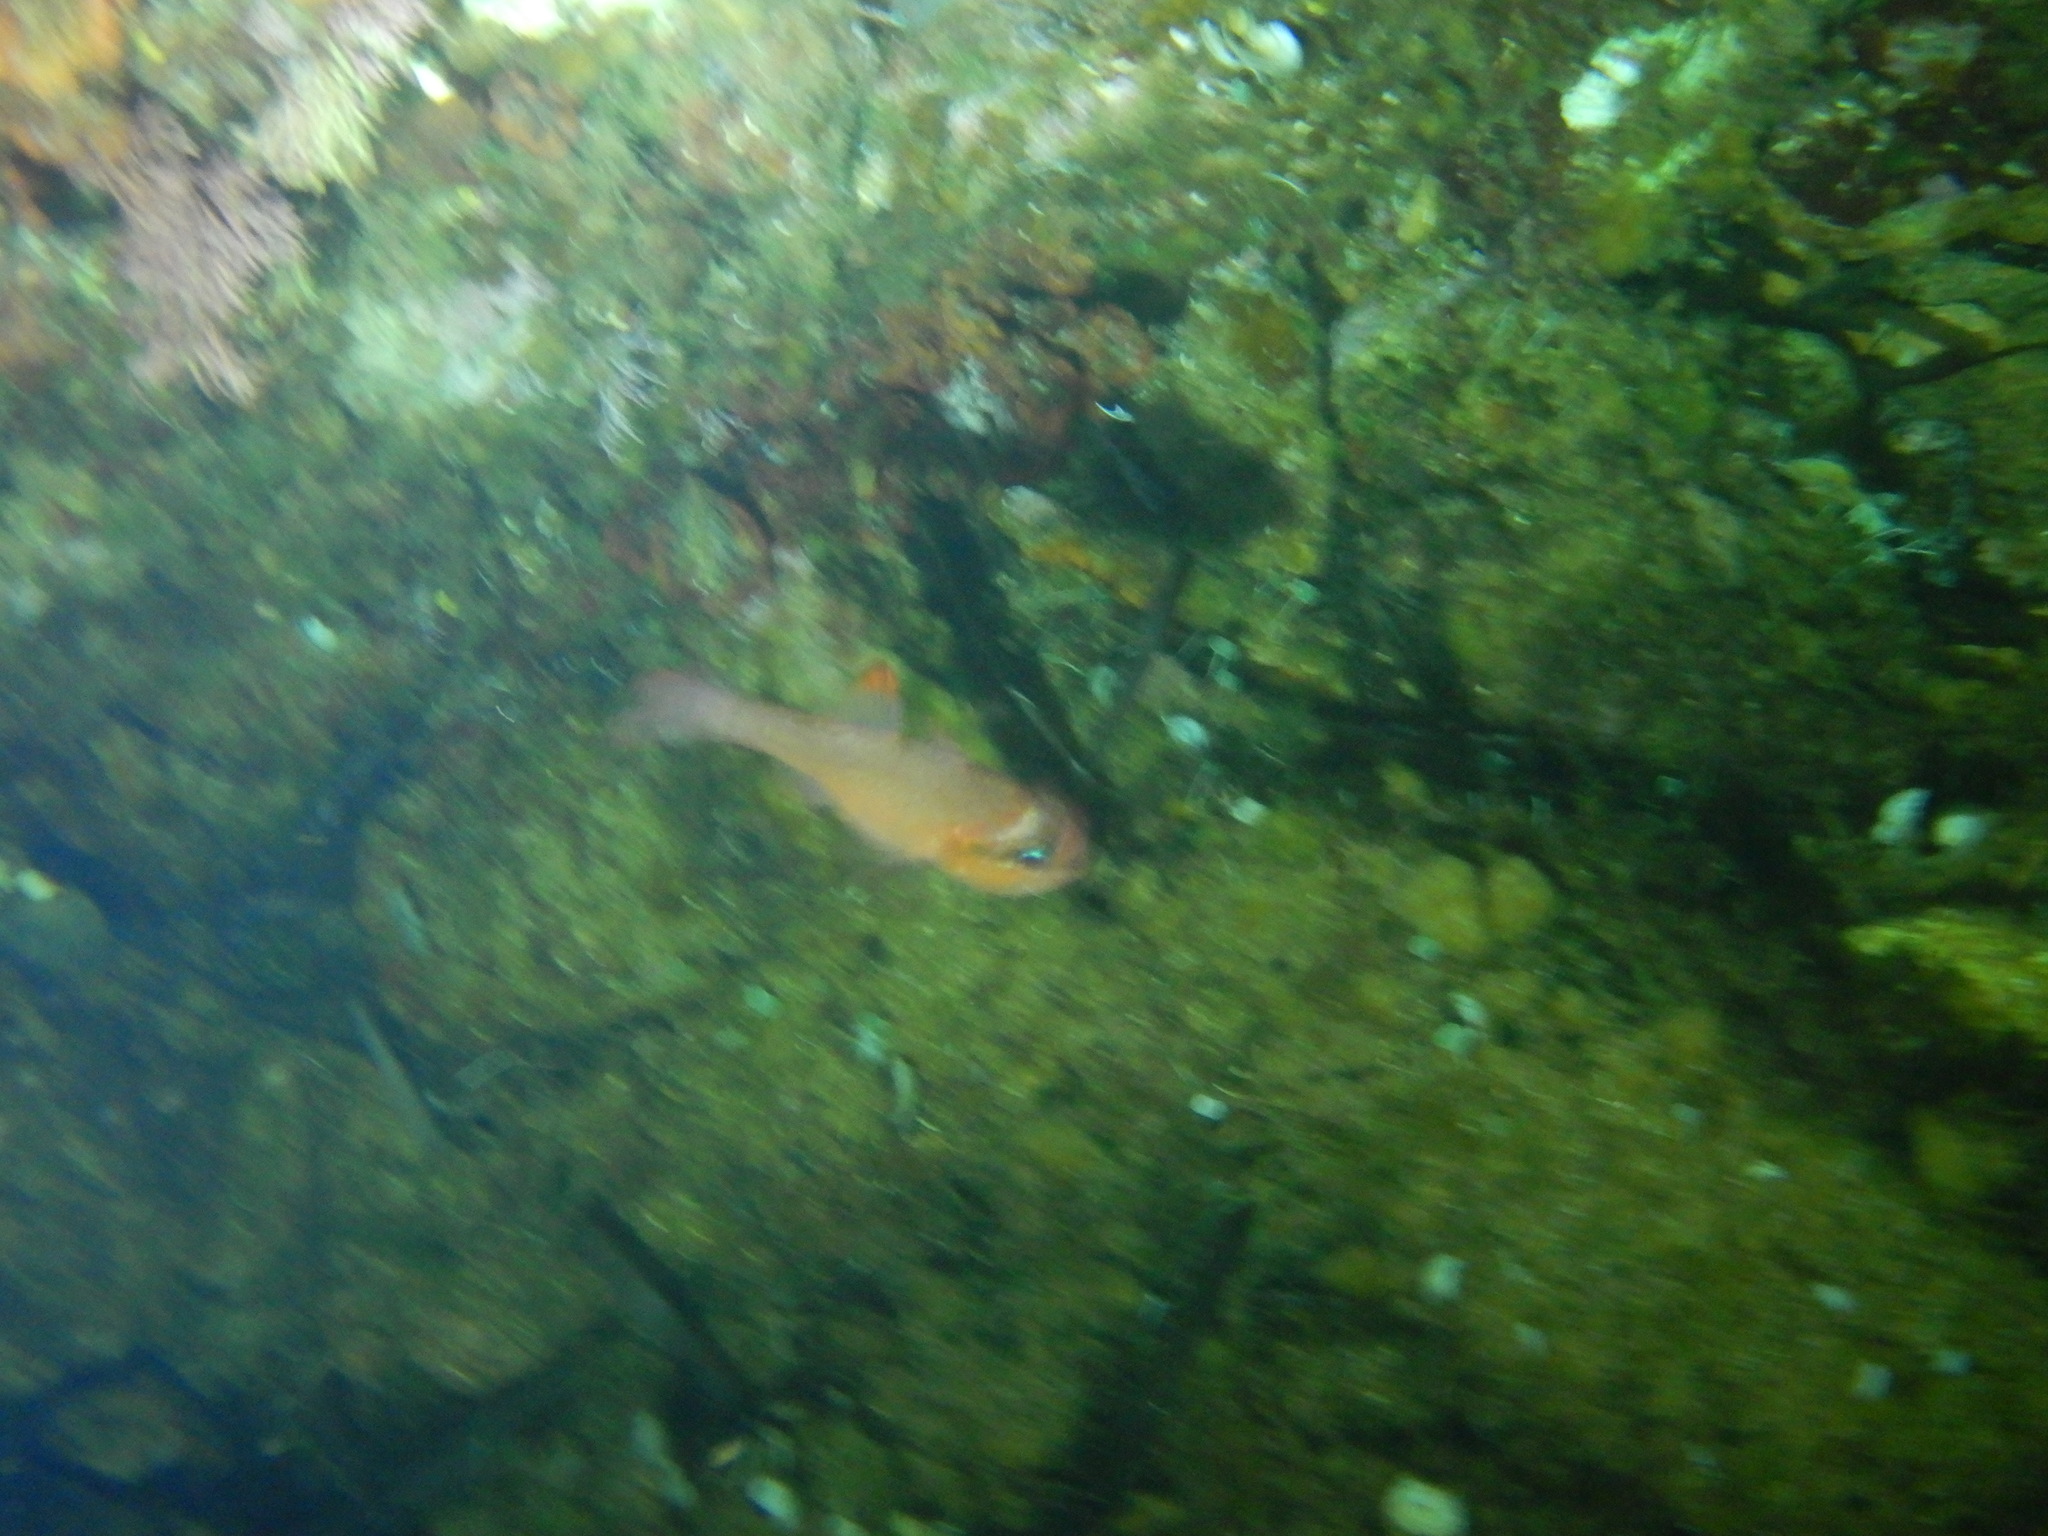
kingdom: Animalia
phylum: Chordata
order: Perciformes
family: Apogonidae
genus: Apogon
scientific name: Apogon imberbis
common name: Cardinal fish
